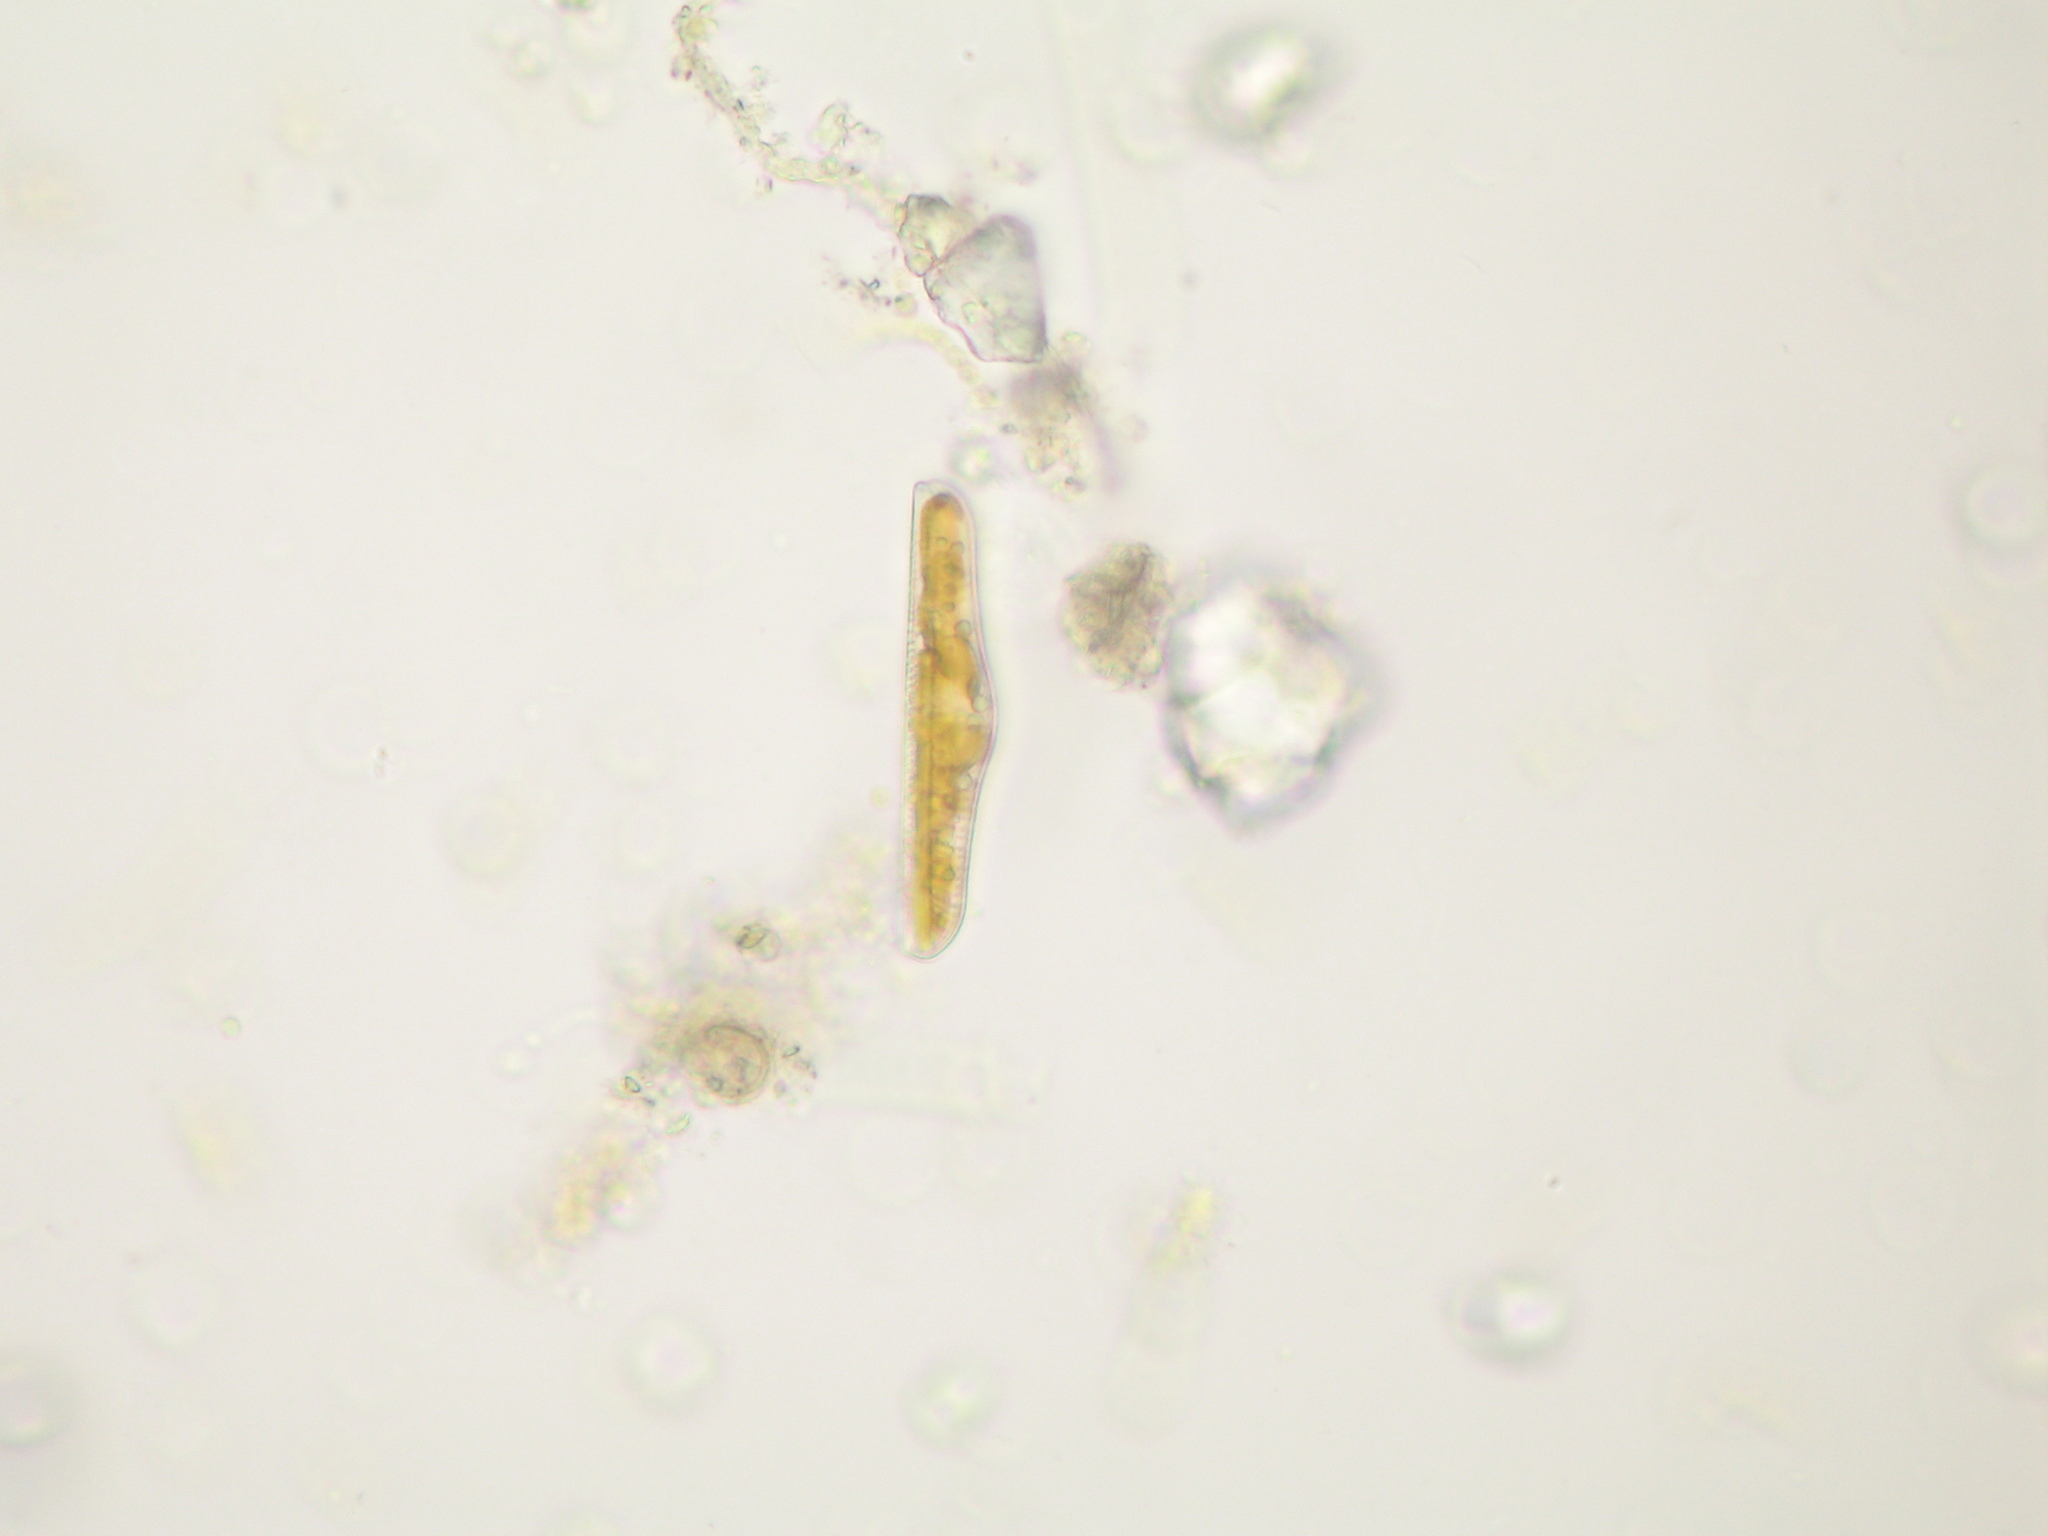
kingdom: Chromista
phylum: Ochrophyta
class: Bacillariophyceae
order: Rhopalodiales
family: Rhopalodiaceae
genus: Epithemia
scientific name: Epithemia gibba
